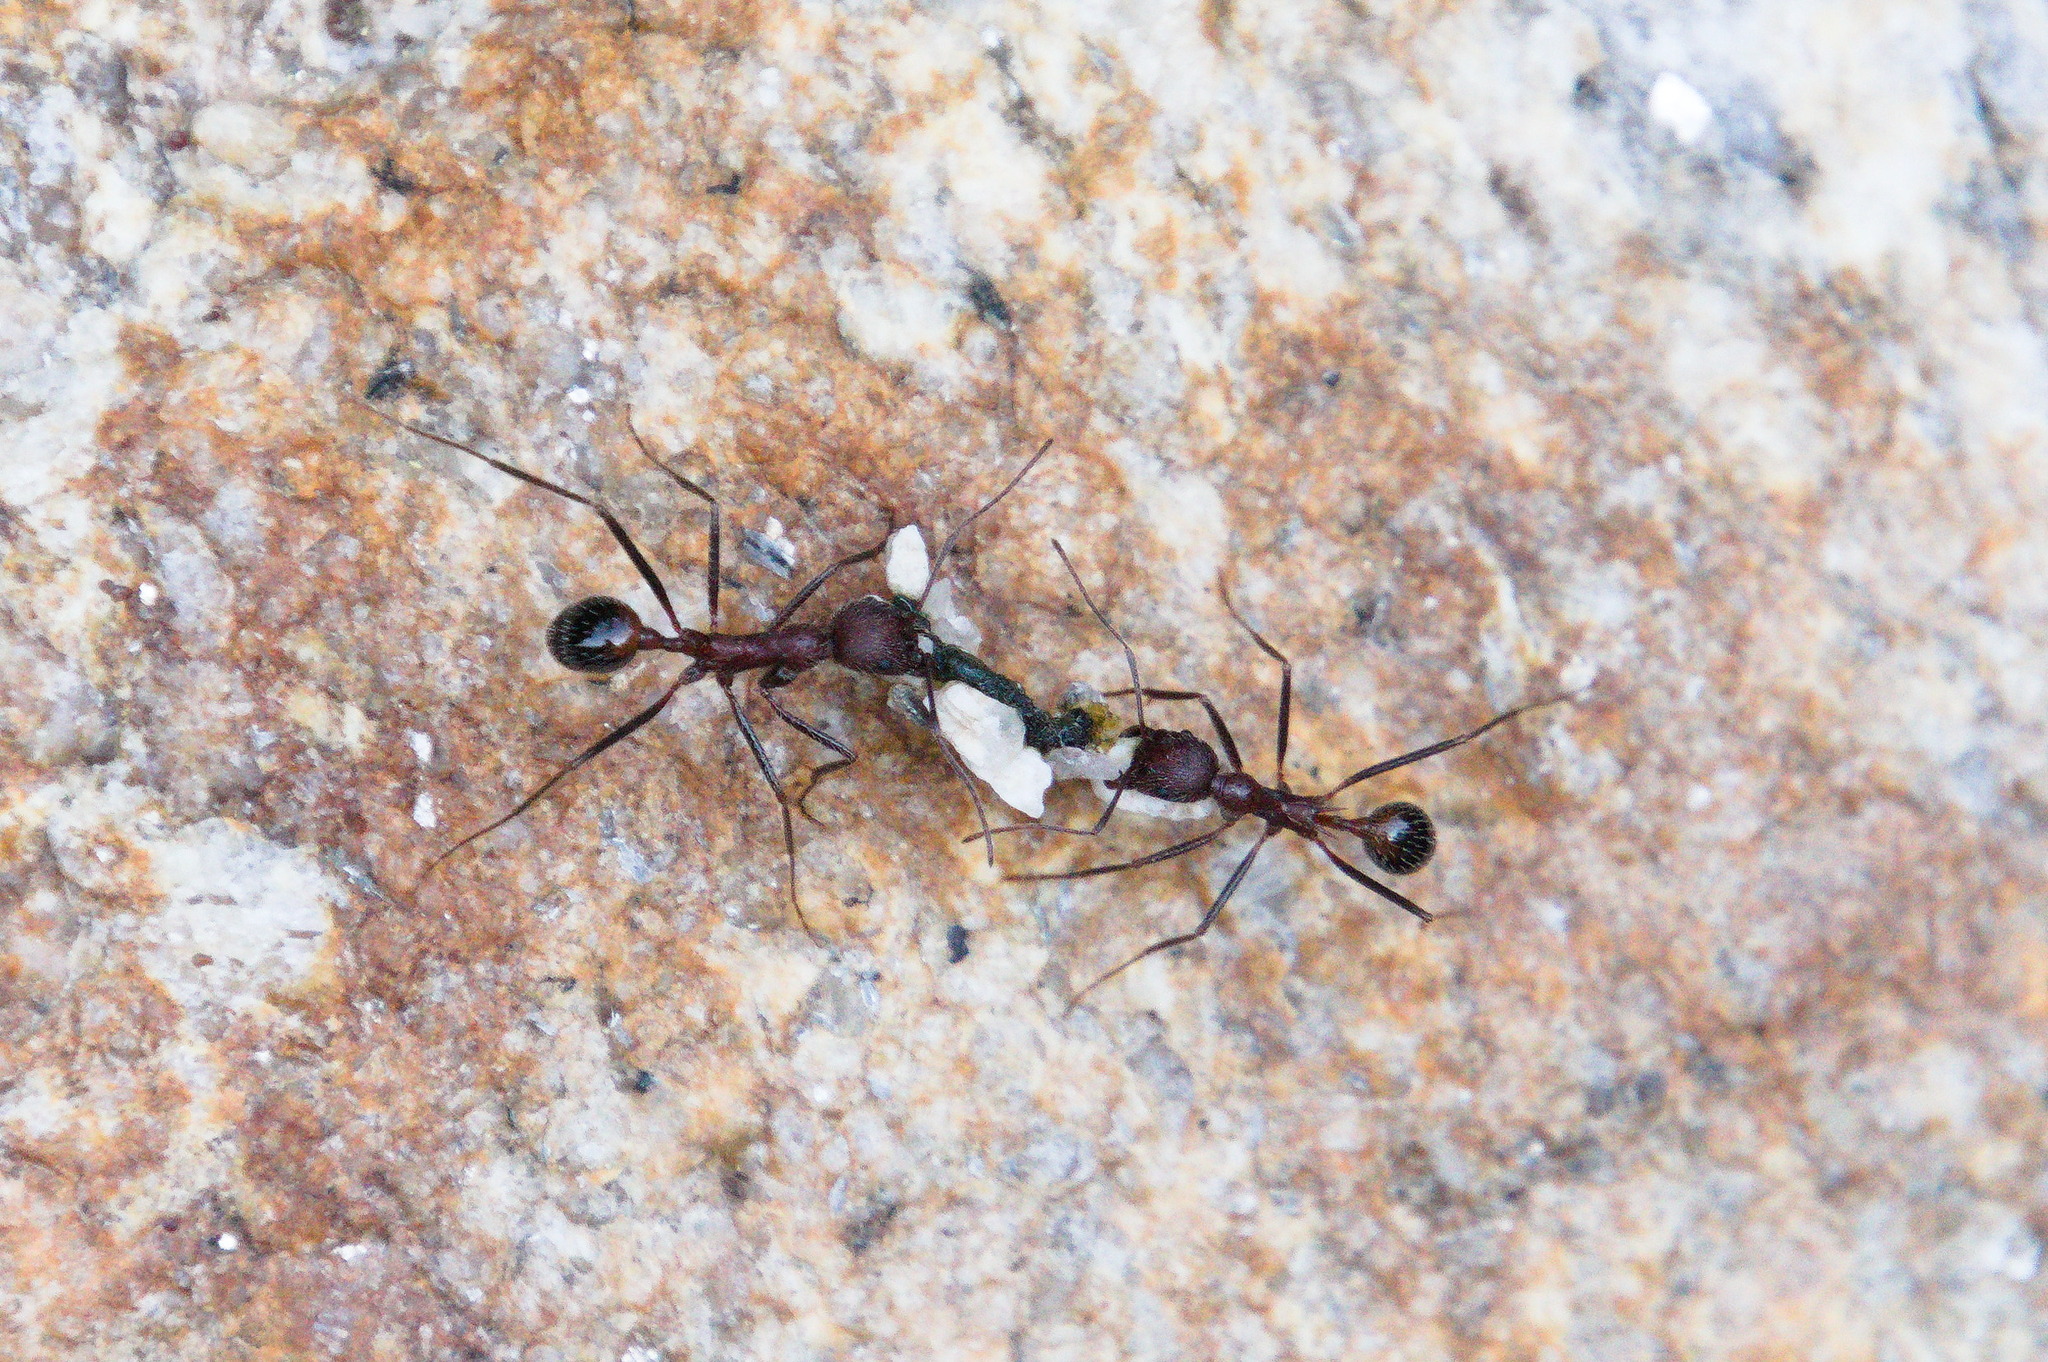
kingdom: Animalia
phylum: Arthropoda
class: Insecta
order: Hymenoptera
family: Formicidae
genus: Novomessor
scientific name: Novomessor albisetosa
